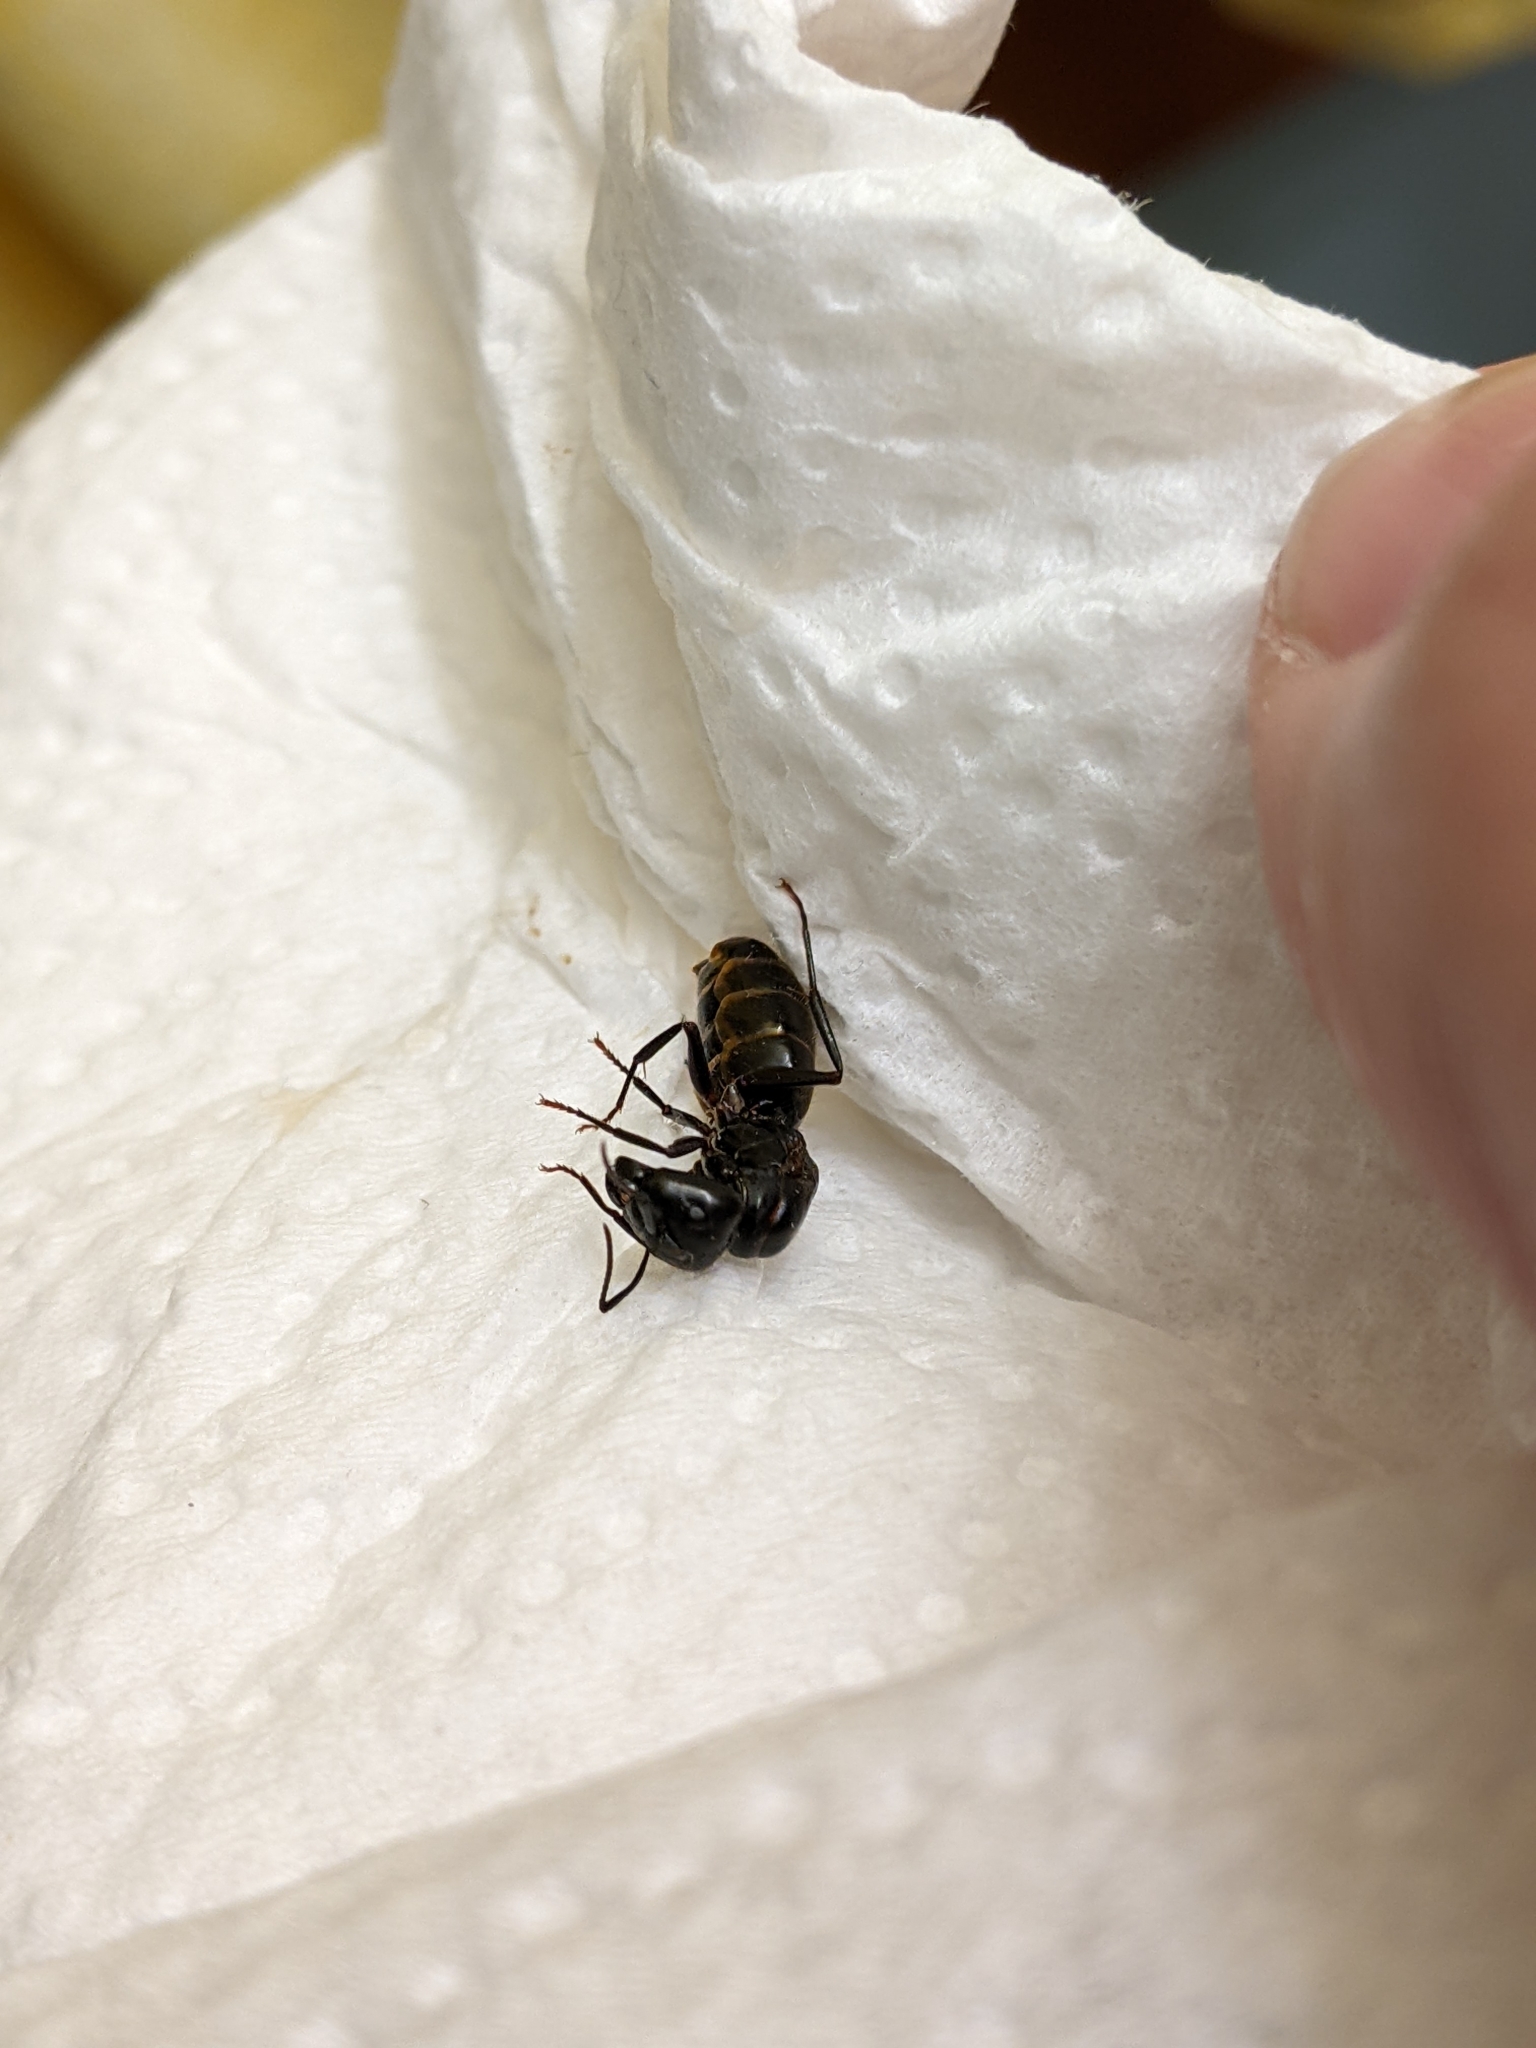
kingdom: Animalia
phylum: Arthropoda
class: Insecta
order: Hymenoptera
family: Formicidae
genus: Camponotus
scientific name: Camponotus pennsylvanicus
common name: Black carpenter ant
